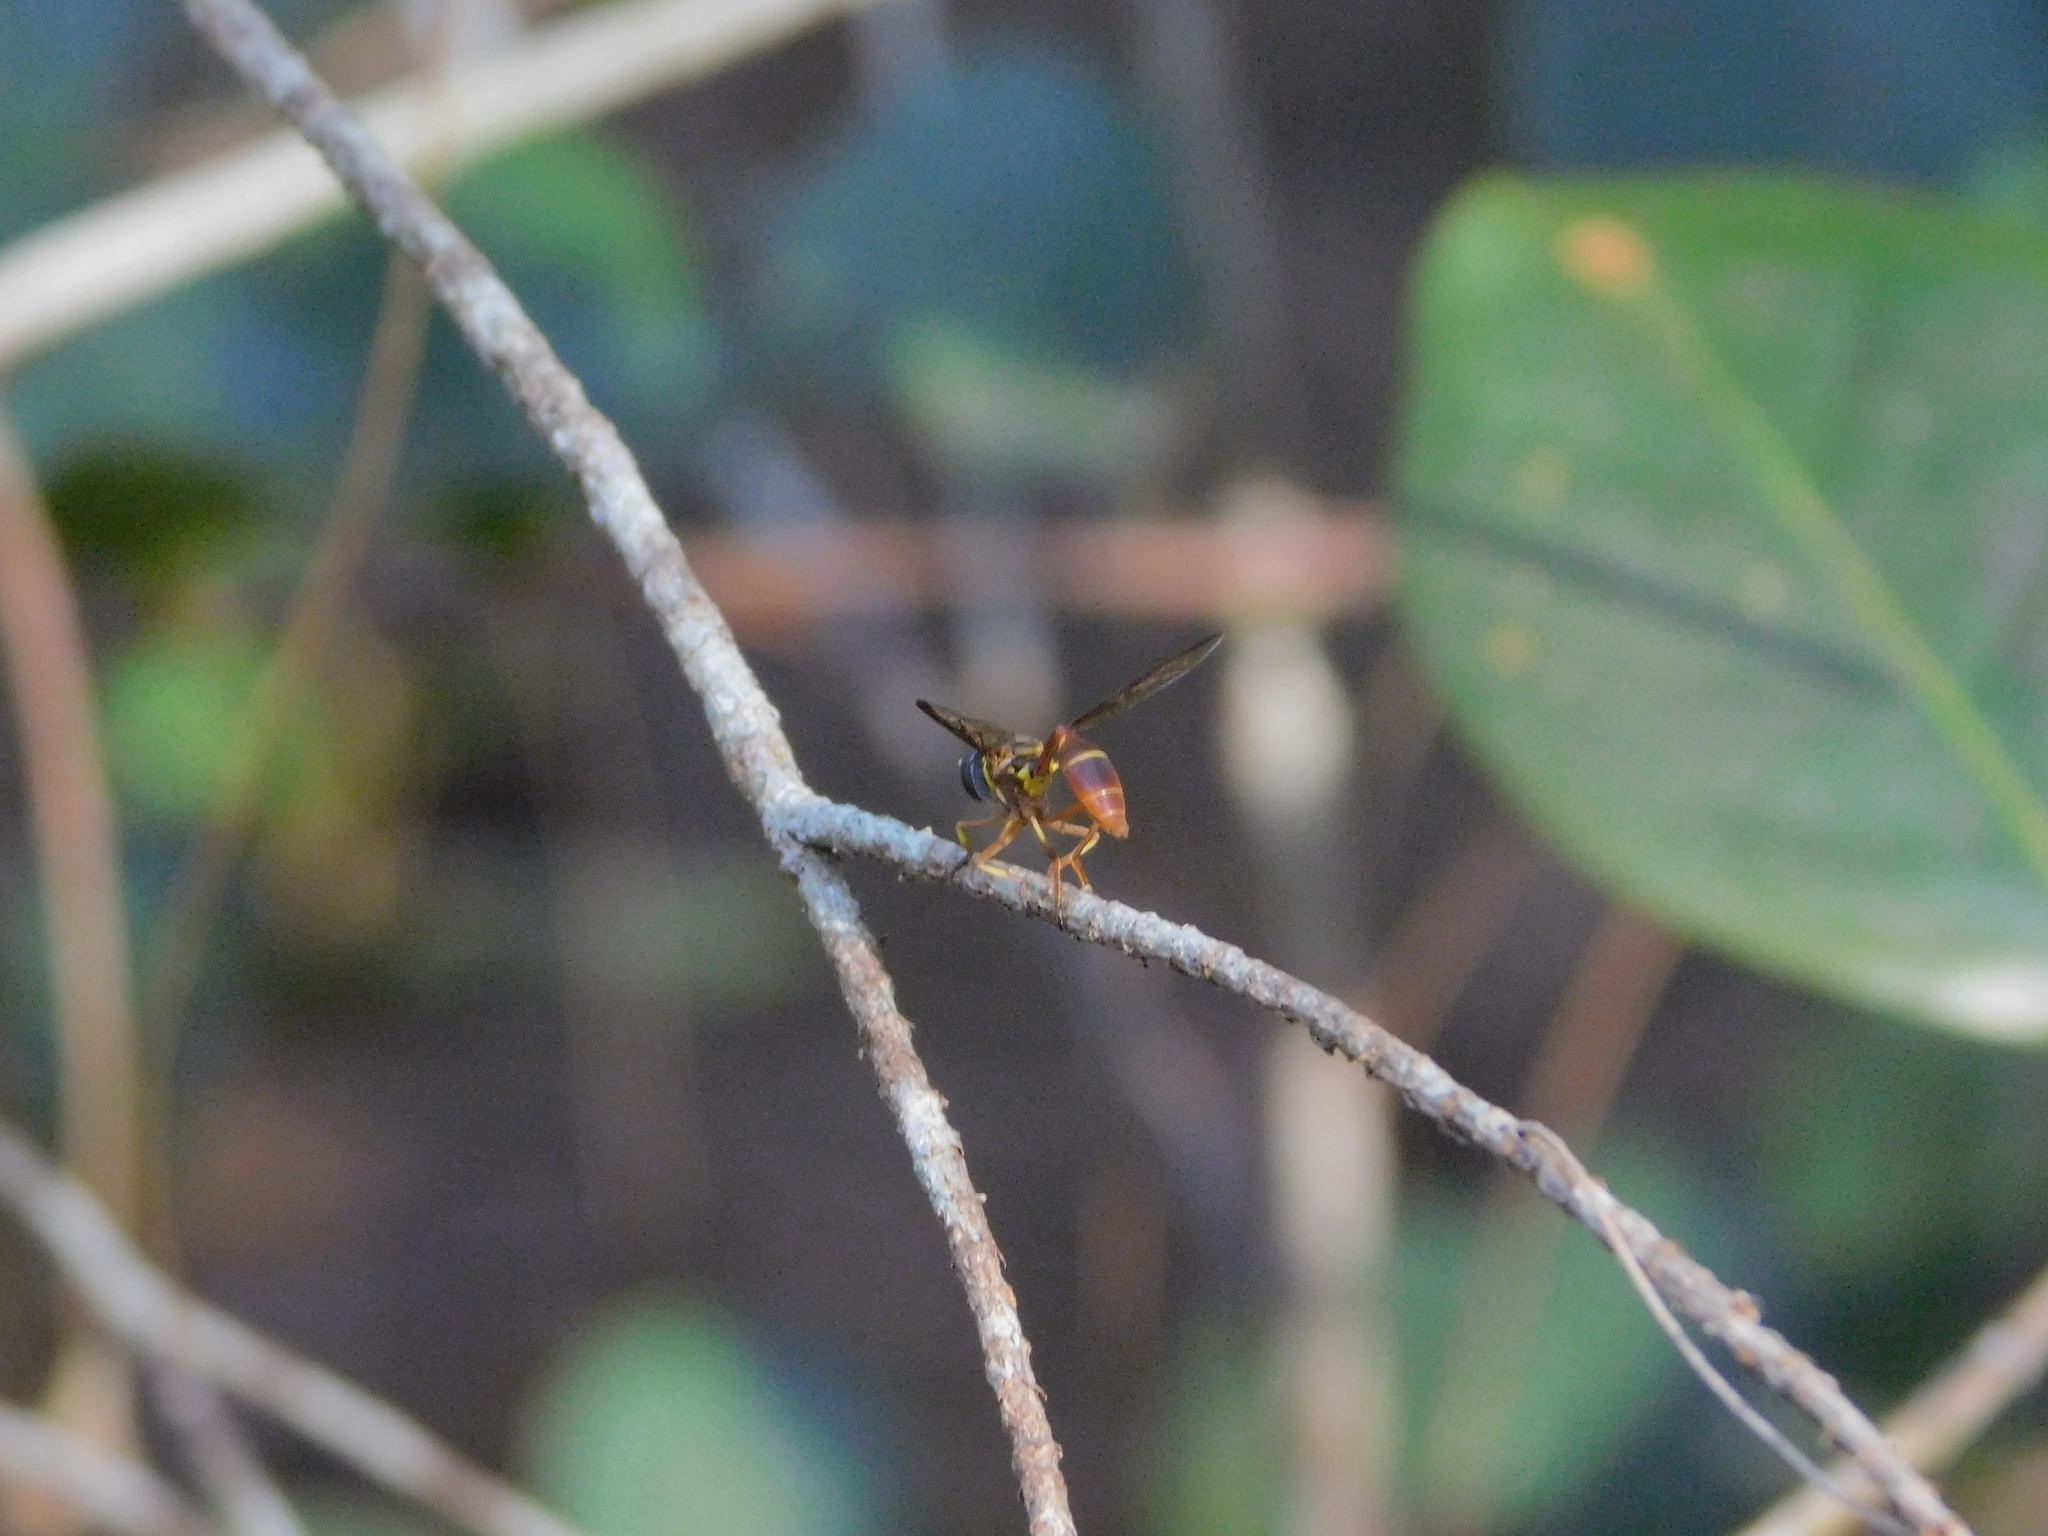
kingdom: Animalia
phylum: Arthropoda
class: Insecta
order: Diptera
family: Syrphidae
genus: Salpingogaster
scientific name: Salpingogaster punctifrons
